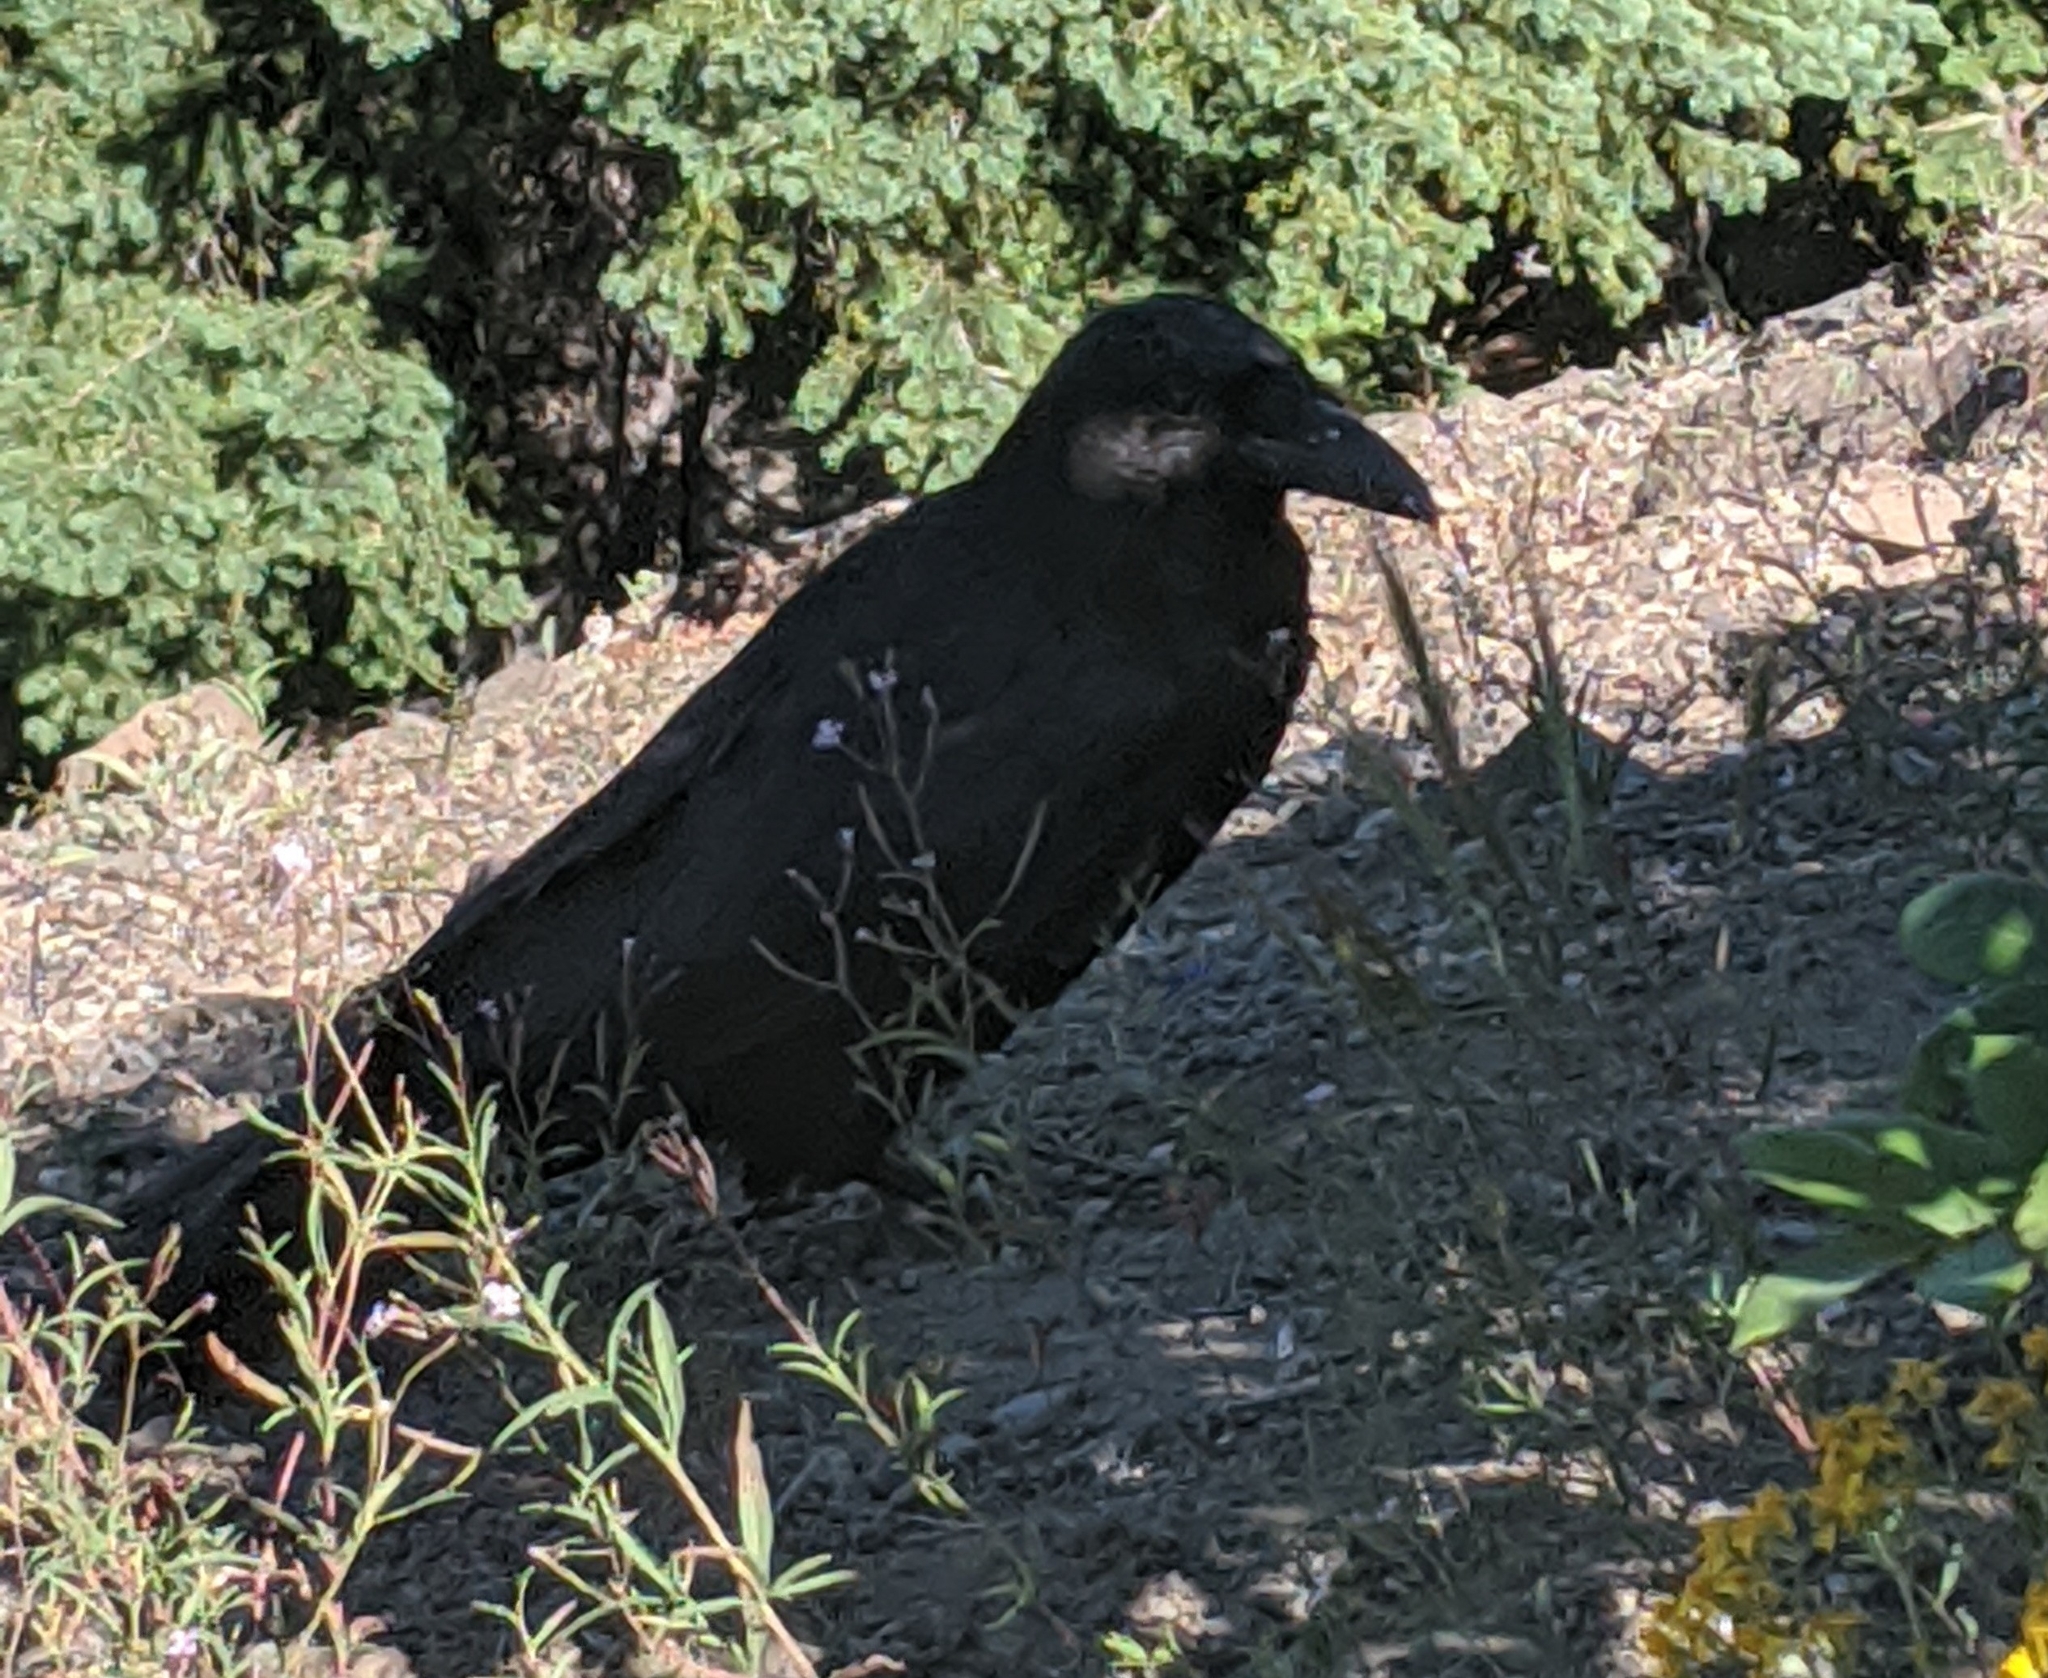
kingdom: Animalia
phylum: Chordata
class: Aves
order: Passeriformes
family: Corvidae
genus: Corvus
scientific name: Corvus corax
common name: Common raven
